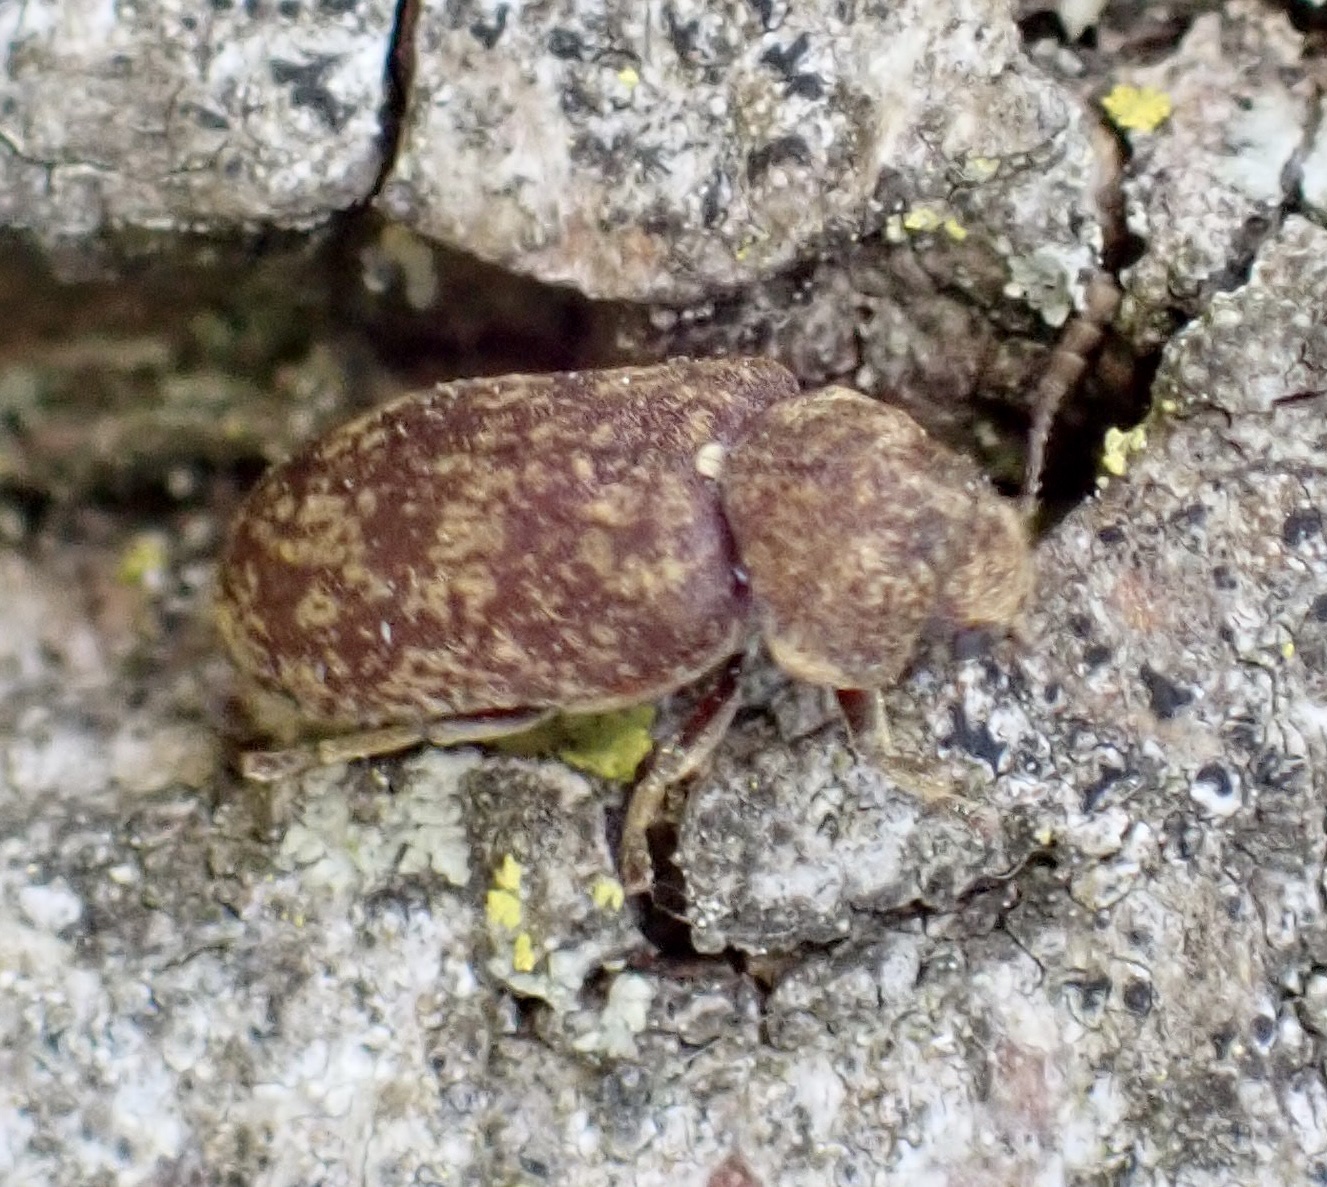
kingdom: Animalia
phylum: Arthropoda
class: Insecta
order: Coleoptera
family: Anobiidae
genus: Xestobium
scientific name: Xestobium rufovillosum
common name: Death-watch beetle
